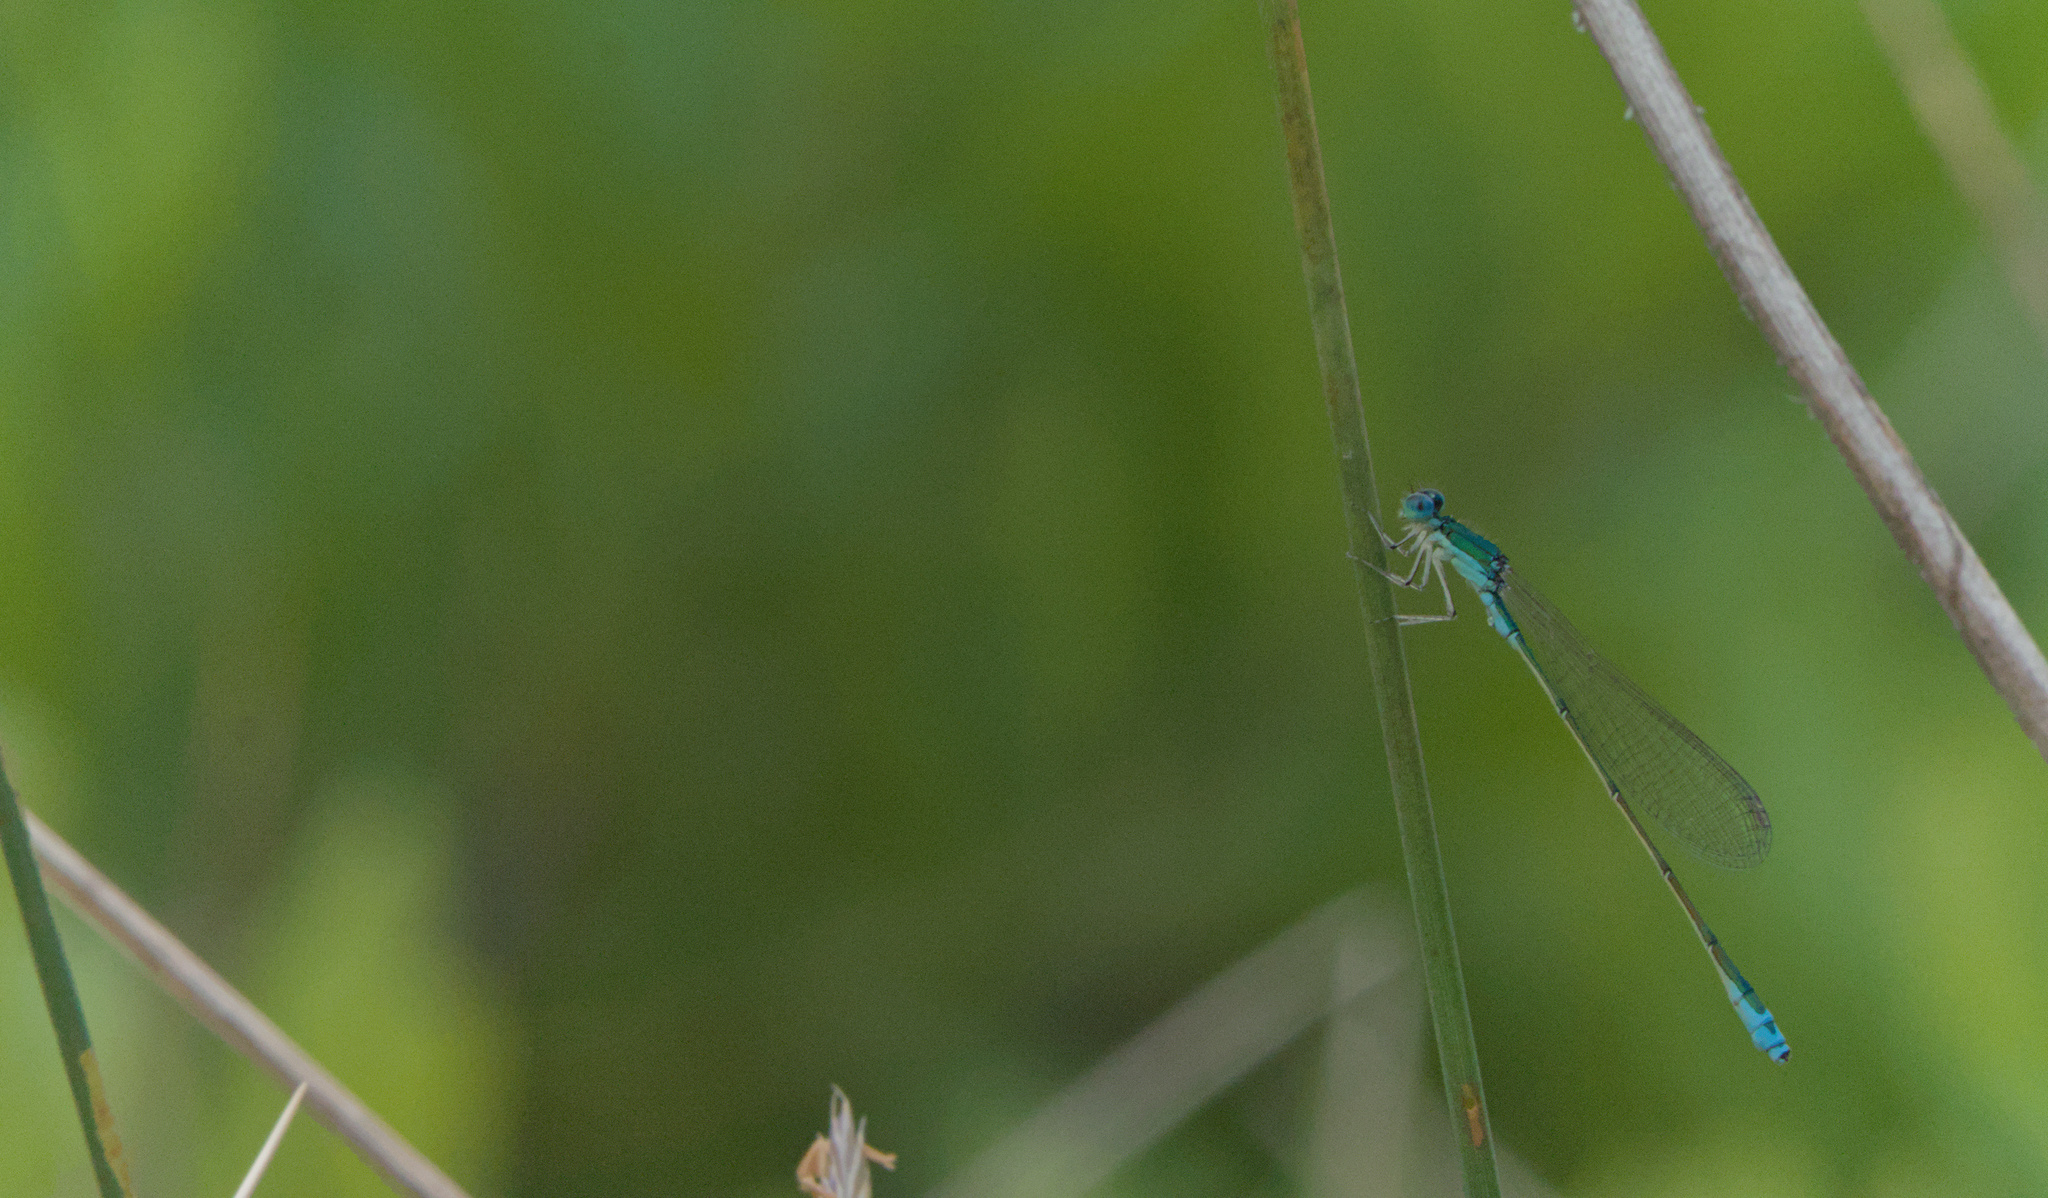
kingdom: Animalia
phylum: Arthropoda
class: Insecta
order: Odonata
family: Coenagrionidae
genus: Nehalennia
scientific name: Nehalennia irene
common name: Sedge sprite
